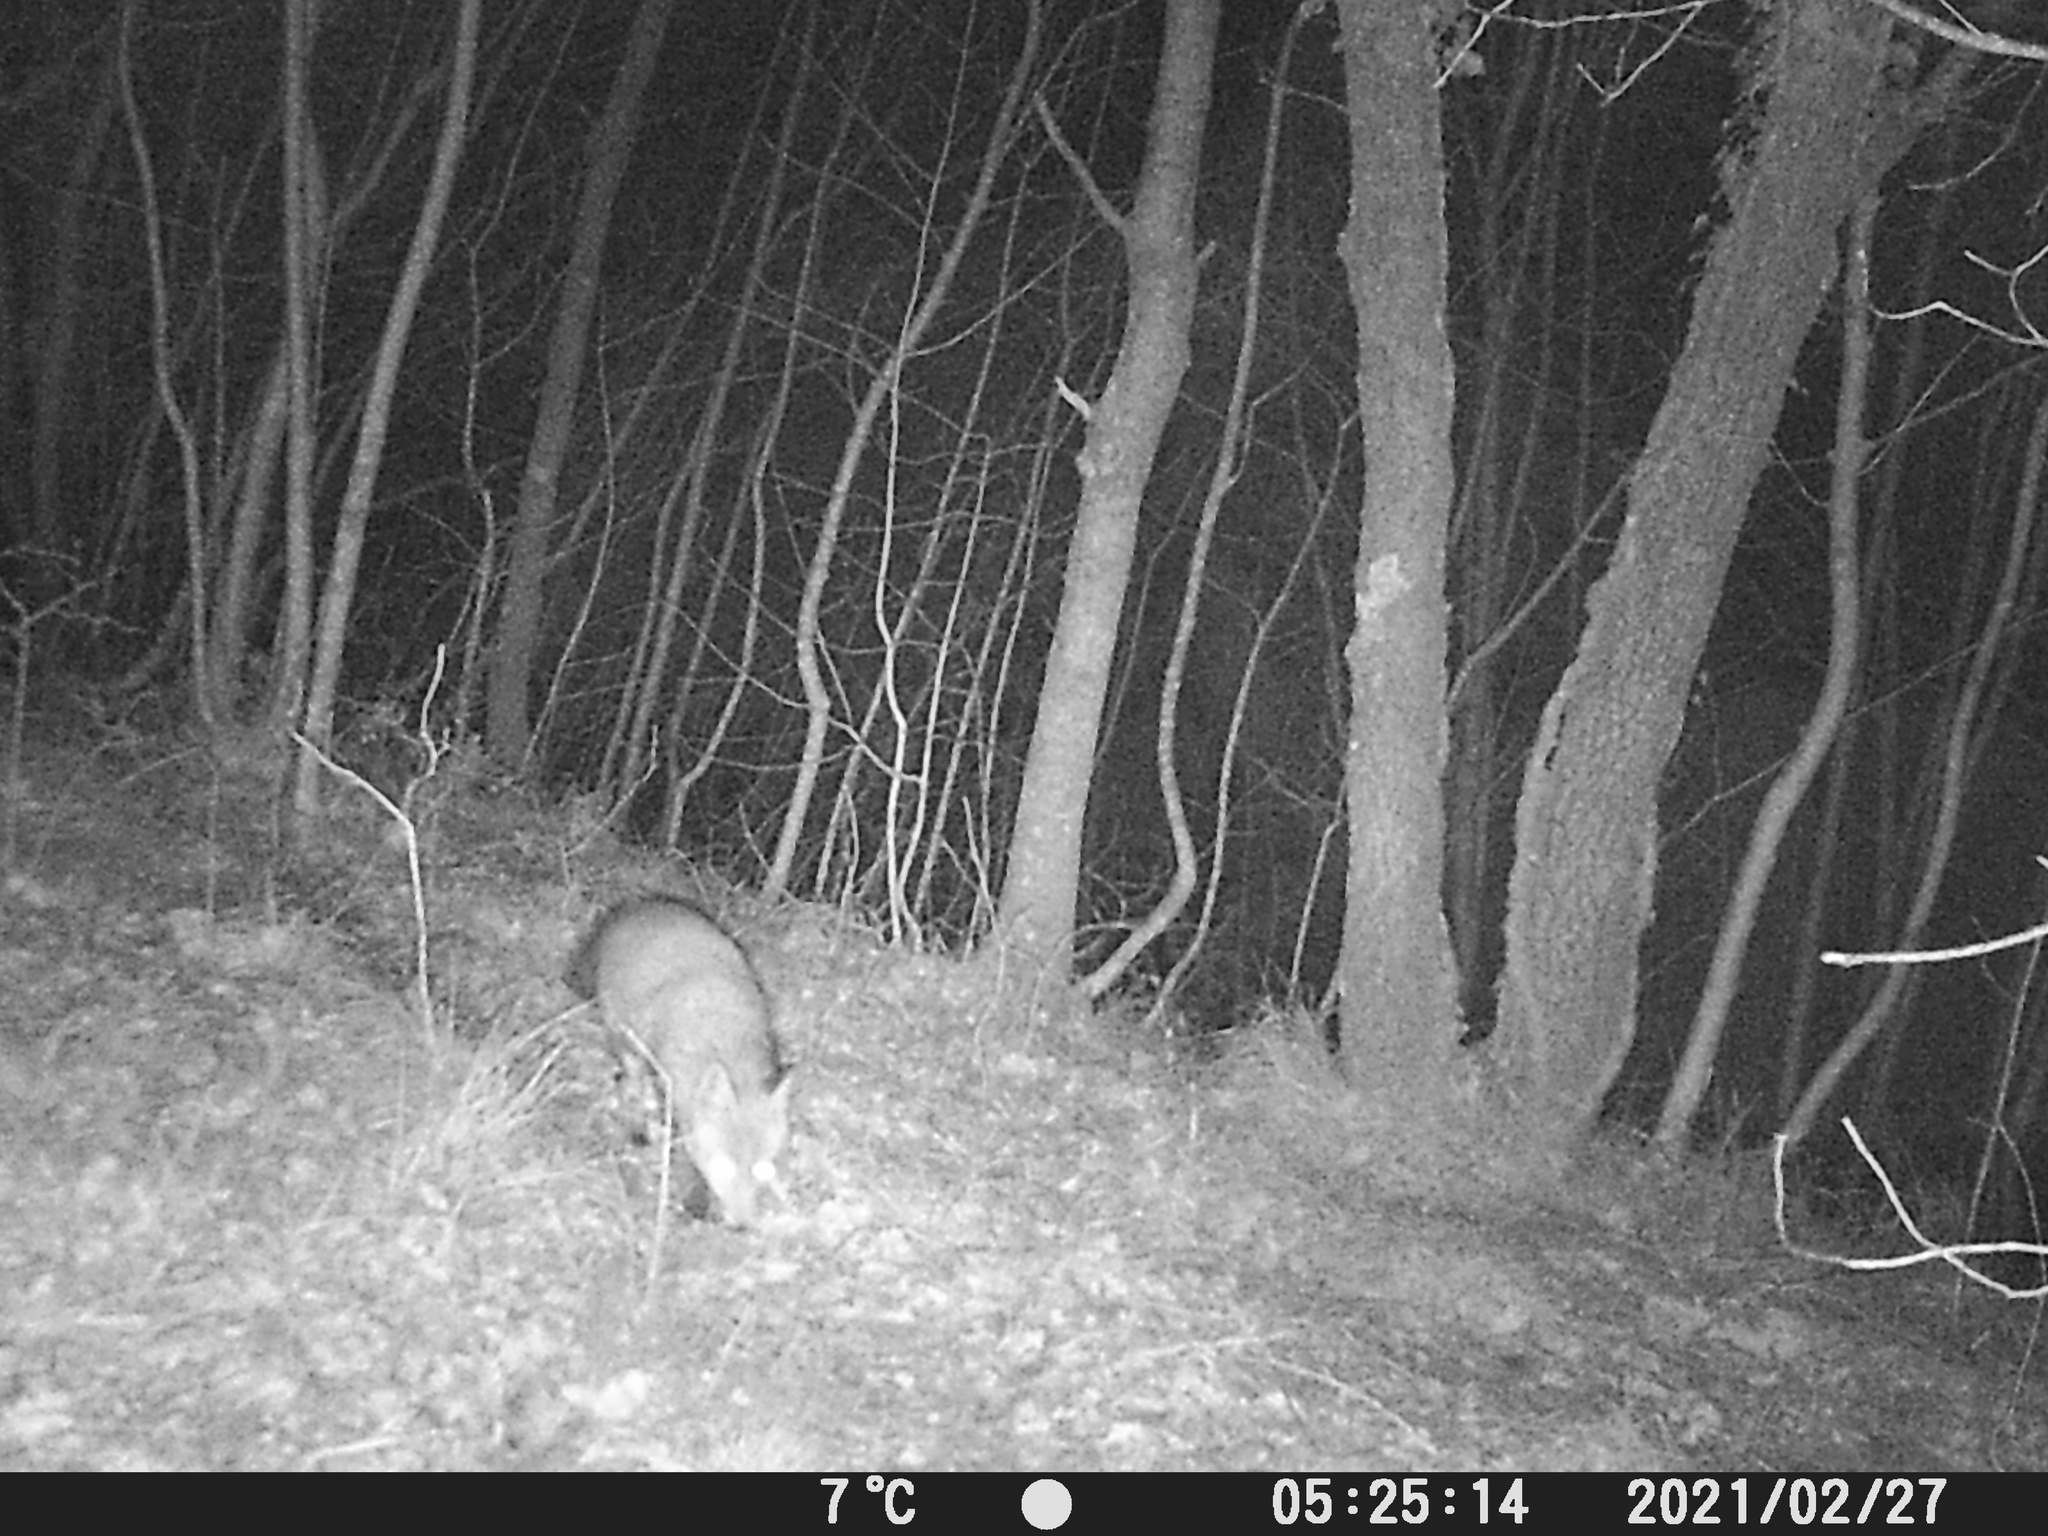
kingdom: Animalia
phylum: Chordata
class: Mammalia
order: Carnivora
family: Canidae
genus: Vulpes
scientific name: Vulpes vulpes
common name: Red fox
